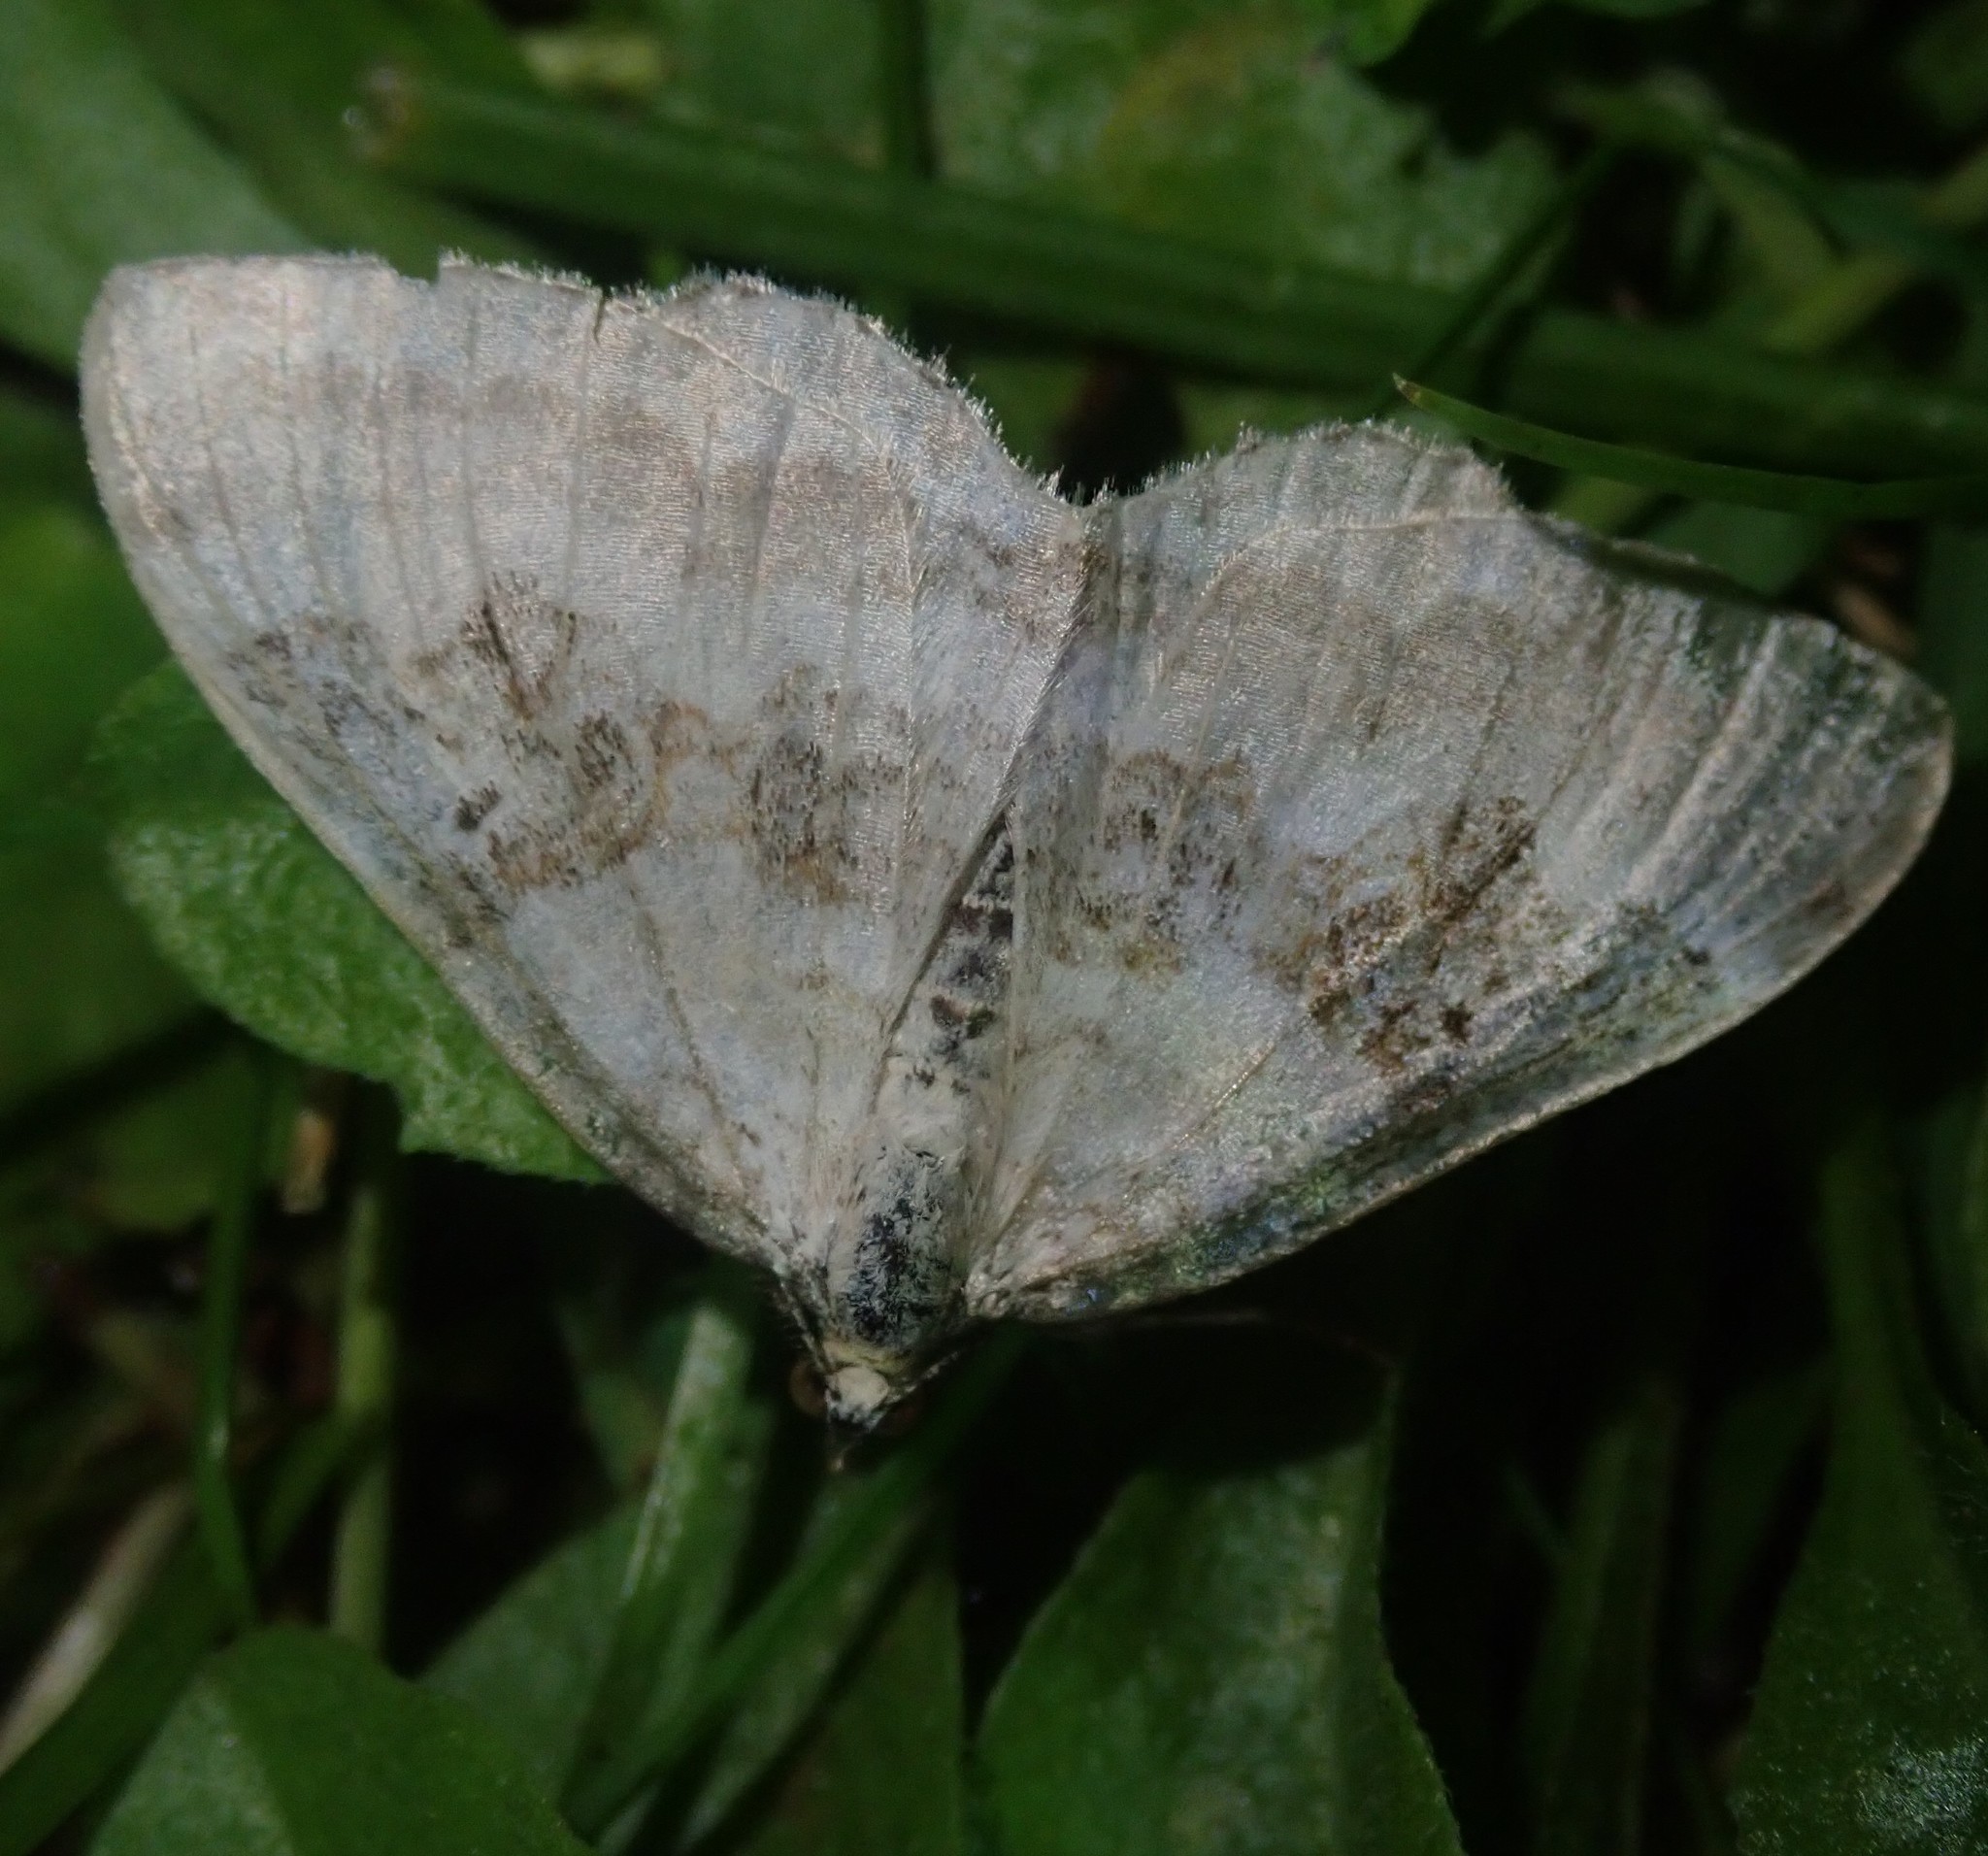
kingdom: Animalia
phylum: Arthropoda
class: Insecta
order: Lepidoptera
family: Geometridae
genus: Xanthorhoe
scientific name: Xanthorhoe montanata
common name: Silver-ground carpet
